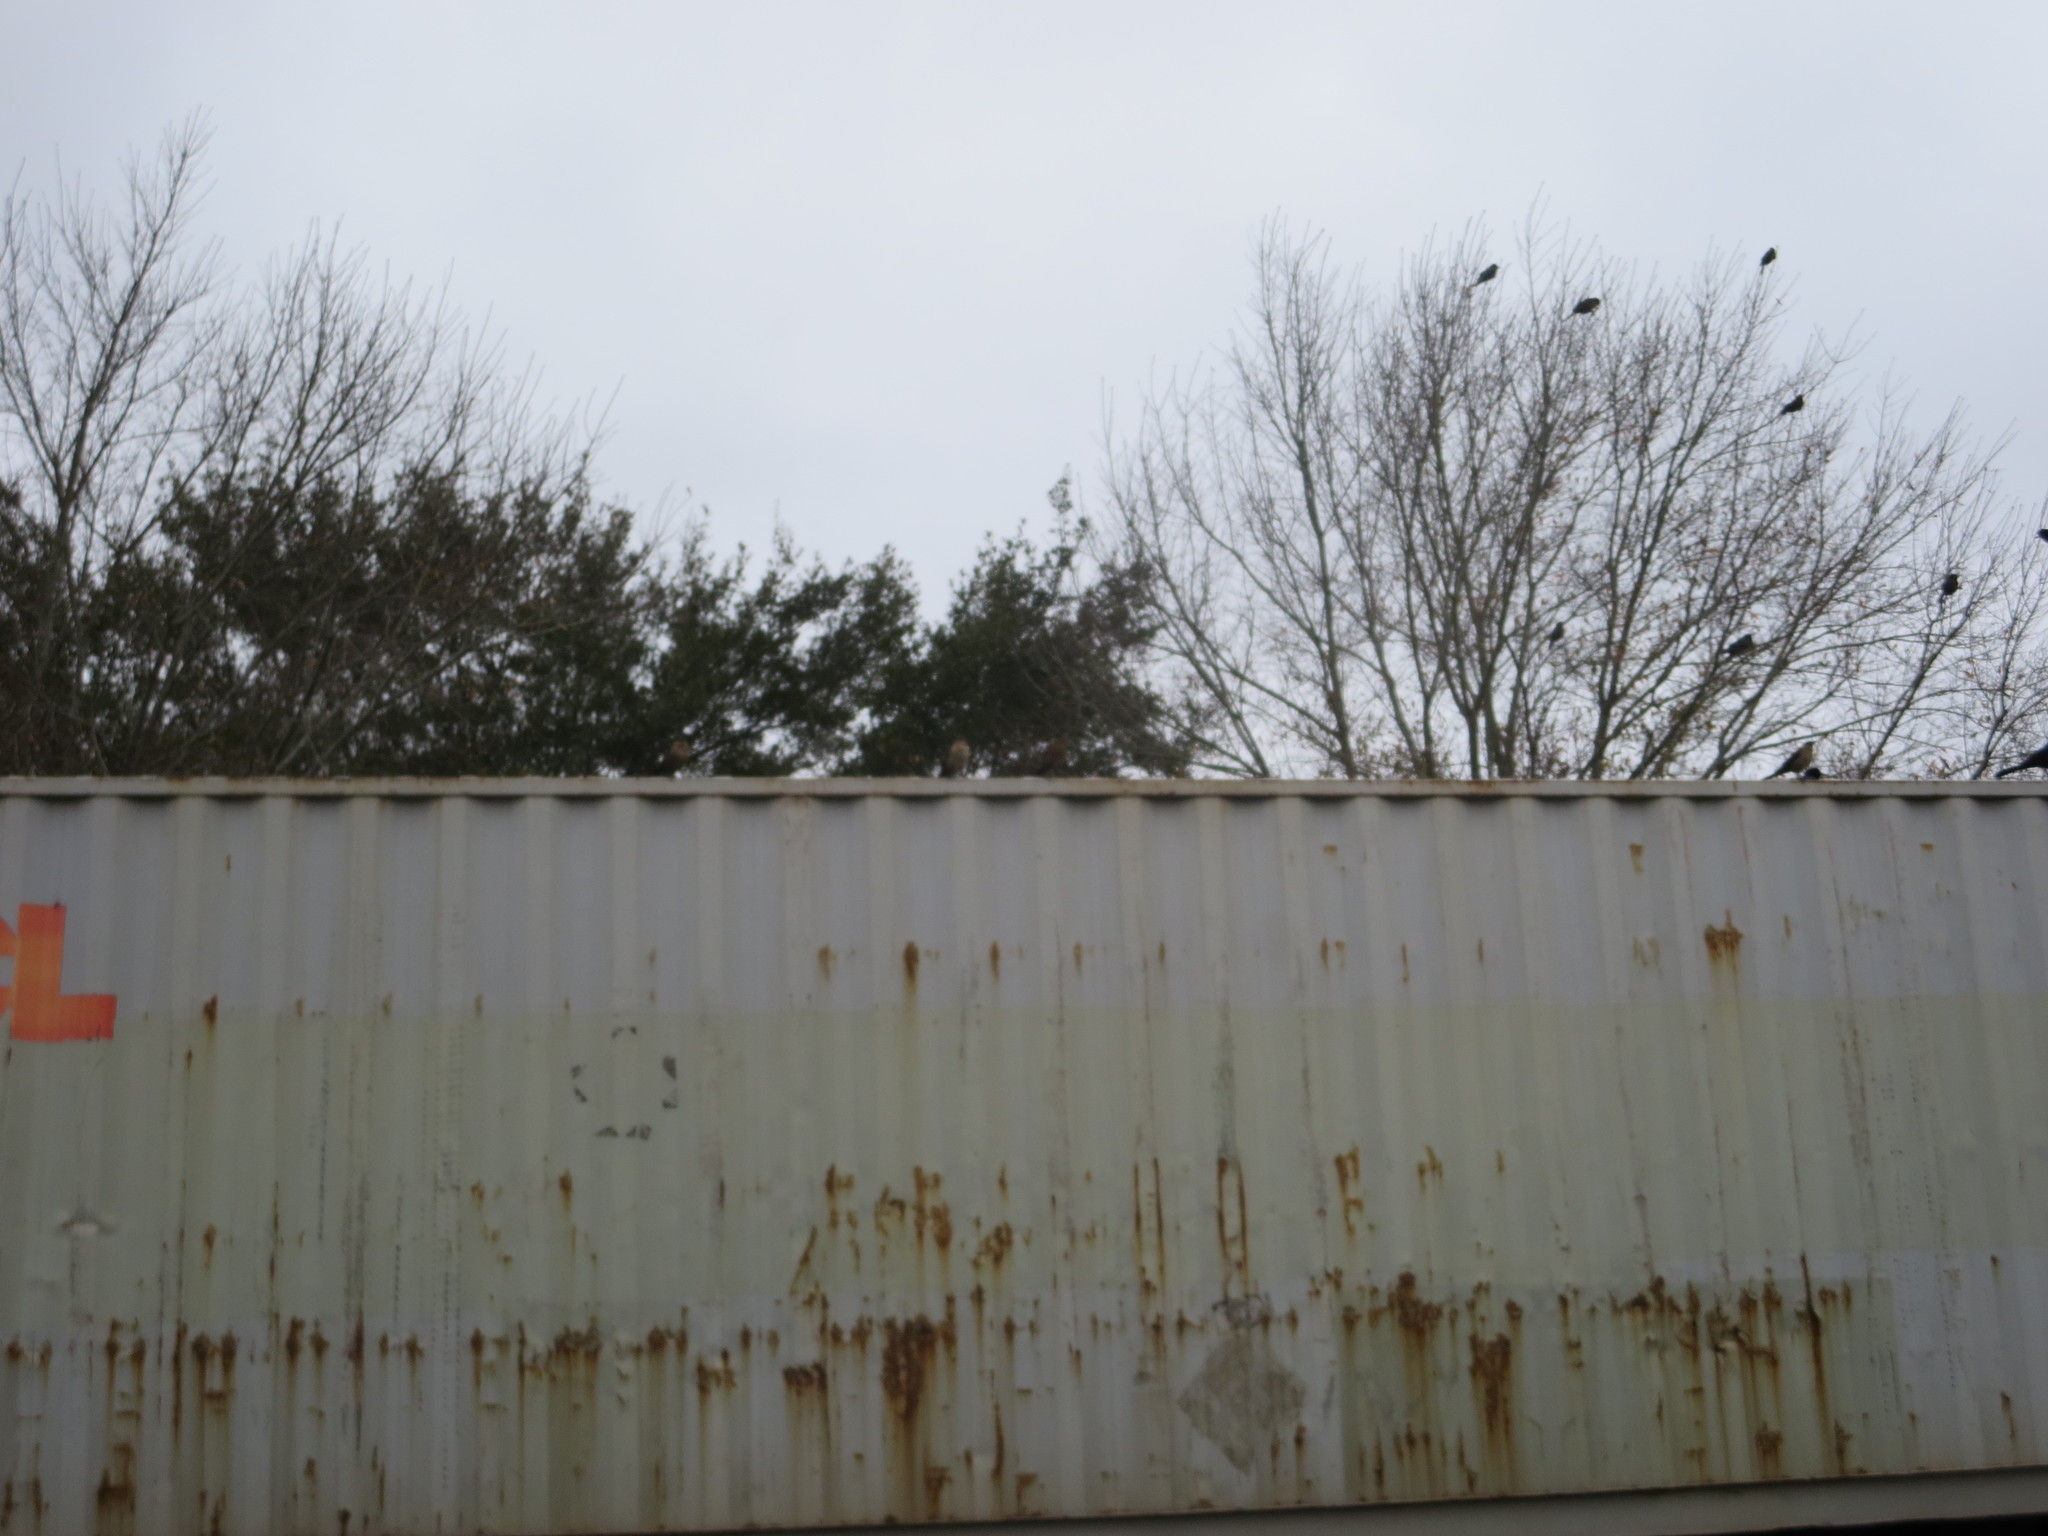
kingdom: Animalia
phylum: Chordata
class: Aves
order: Passeriformes
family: Icteridae
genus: Quiscalus
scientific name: Quiscalus major
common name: Boat-tailed grackle
